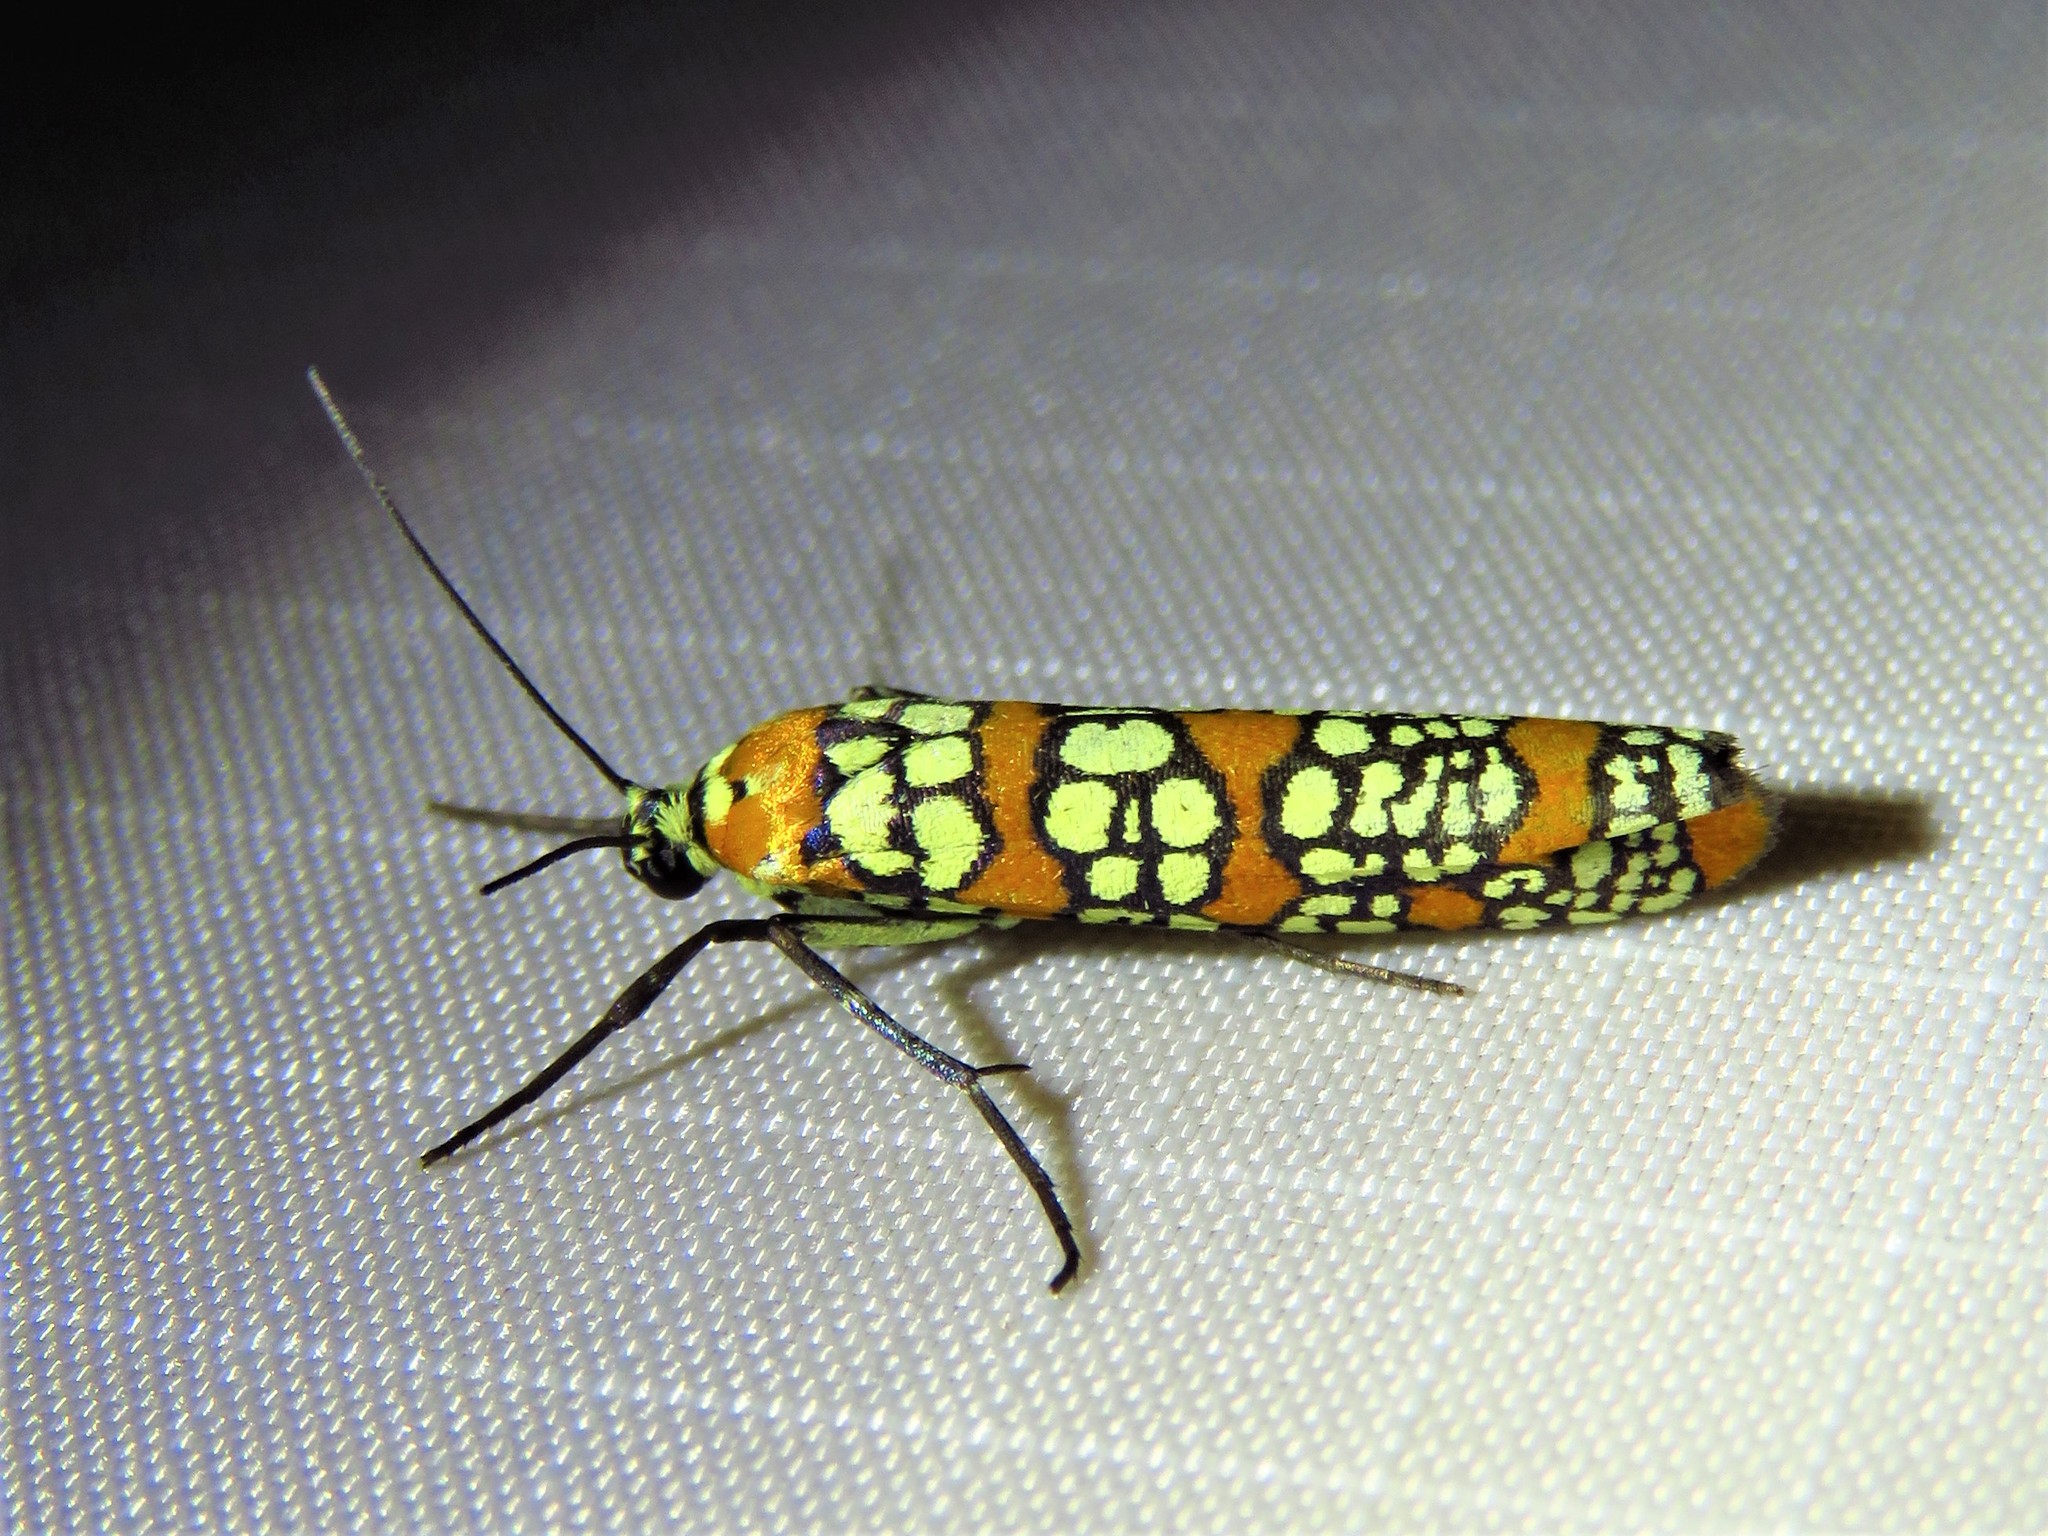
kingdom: Animalia
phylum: Arthropoda
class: Insecta
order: Lepidoptera
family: Attevidae
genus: Atteva
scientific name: Atteva punctella
